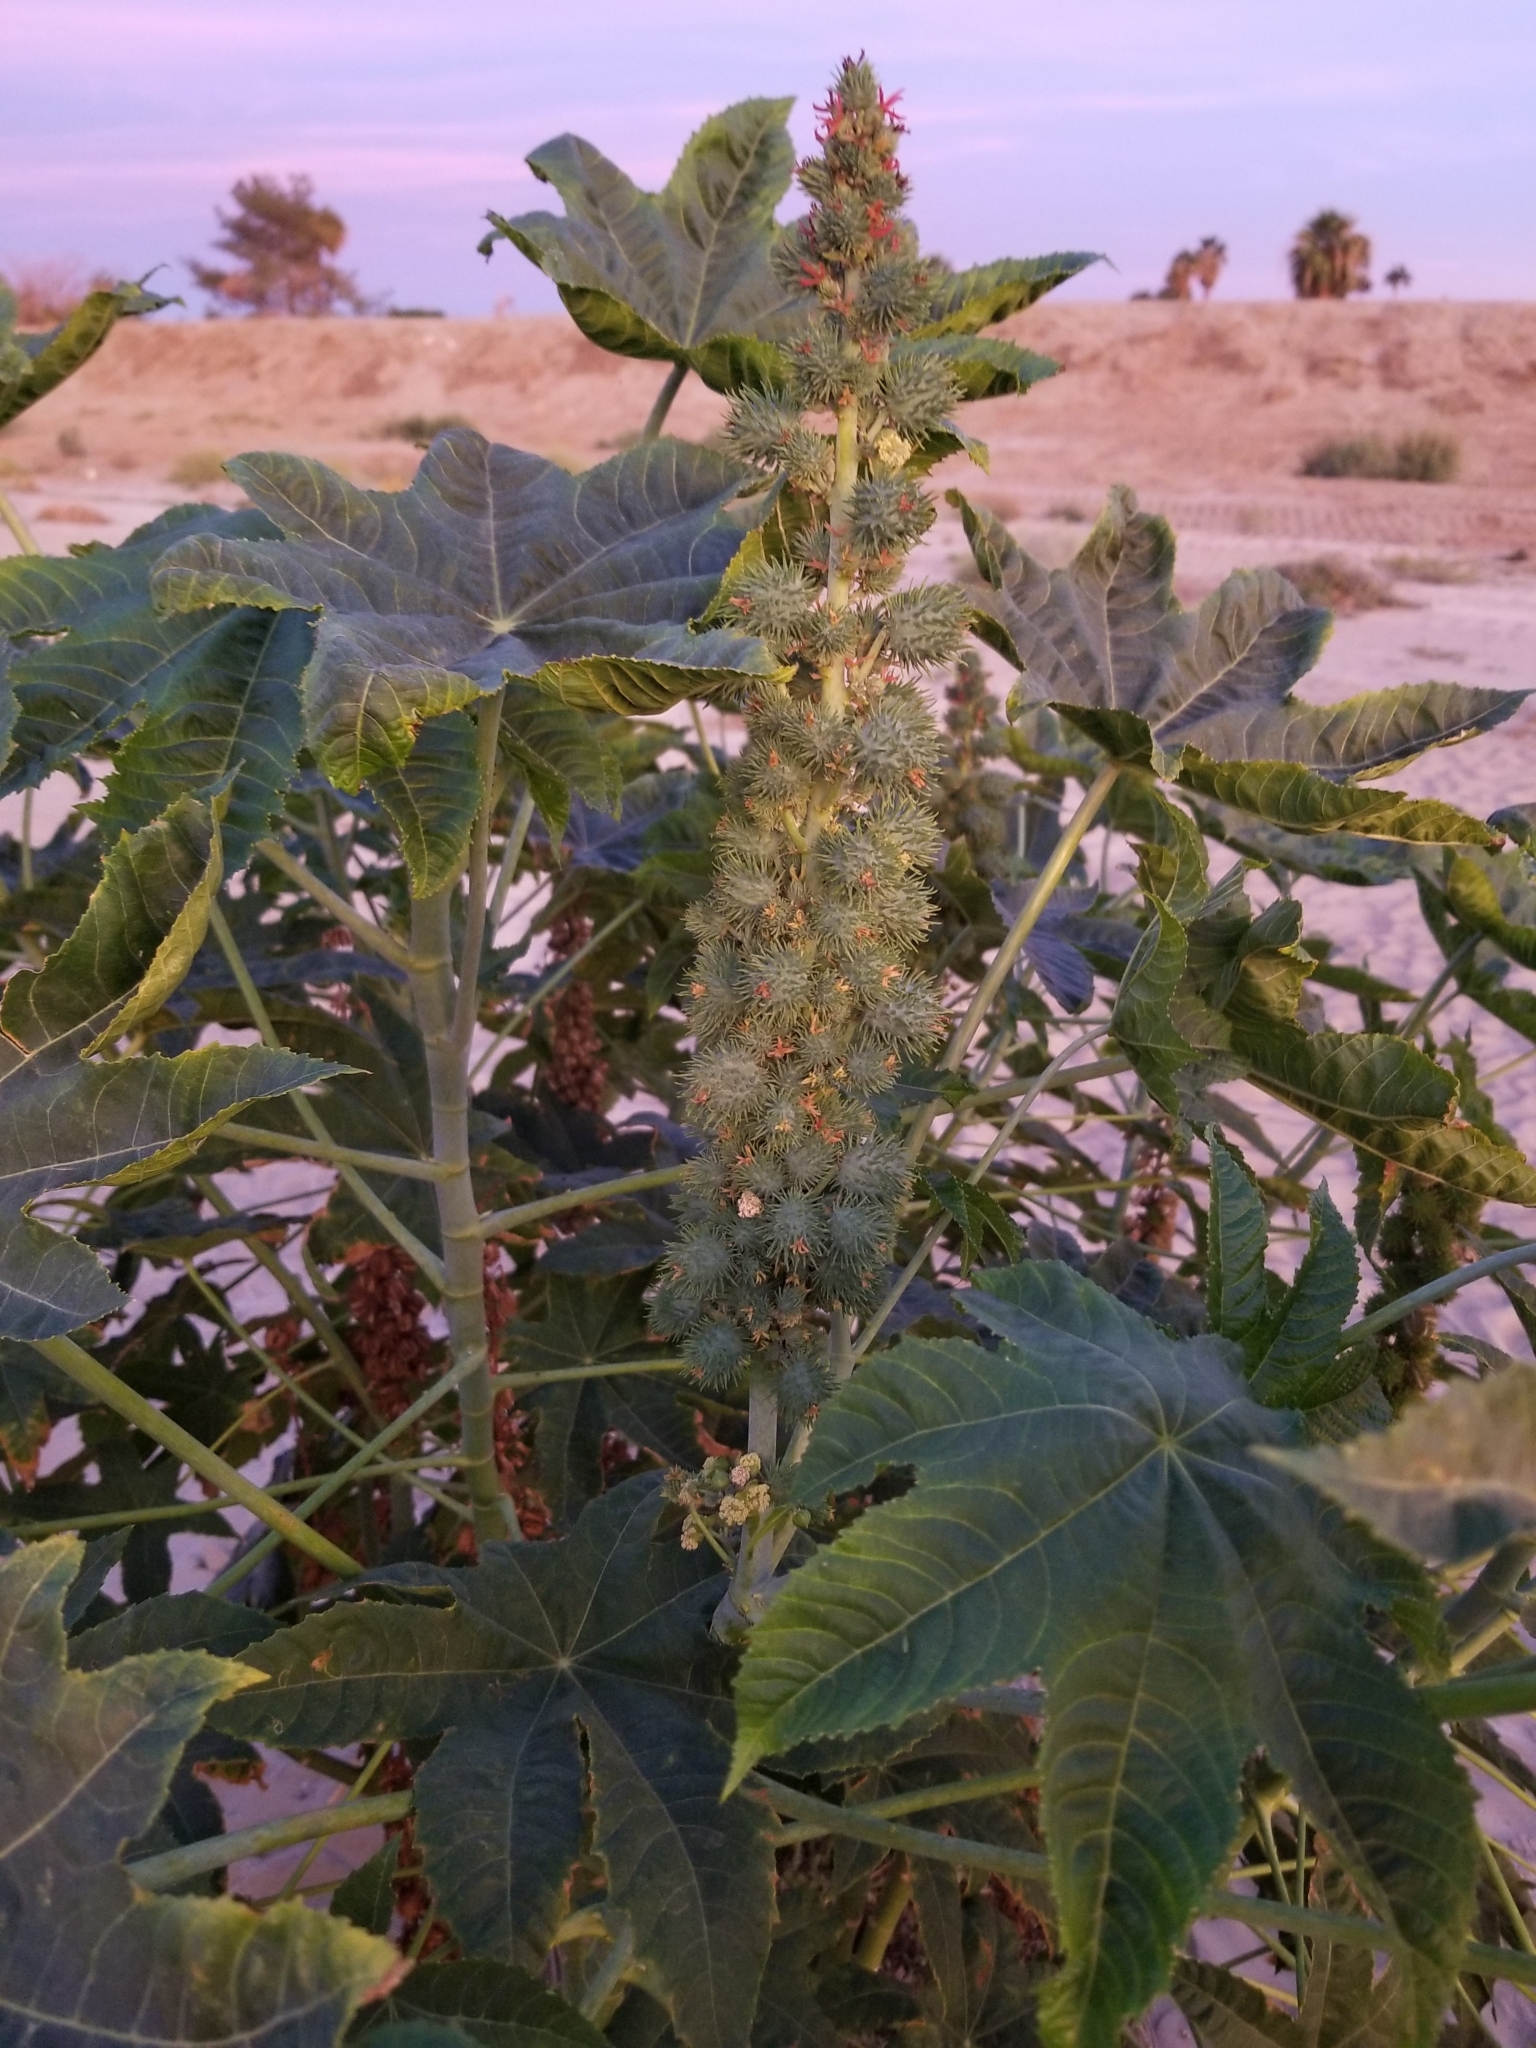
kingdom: Plantae
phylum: Tracheophyta
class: Magnoliopsida
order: Malpighiales
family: Euphorbiaceae
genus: Ricinus
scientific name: Ricinus communis
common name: Castor-oil-plant
